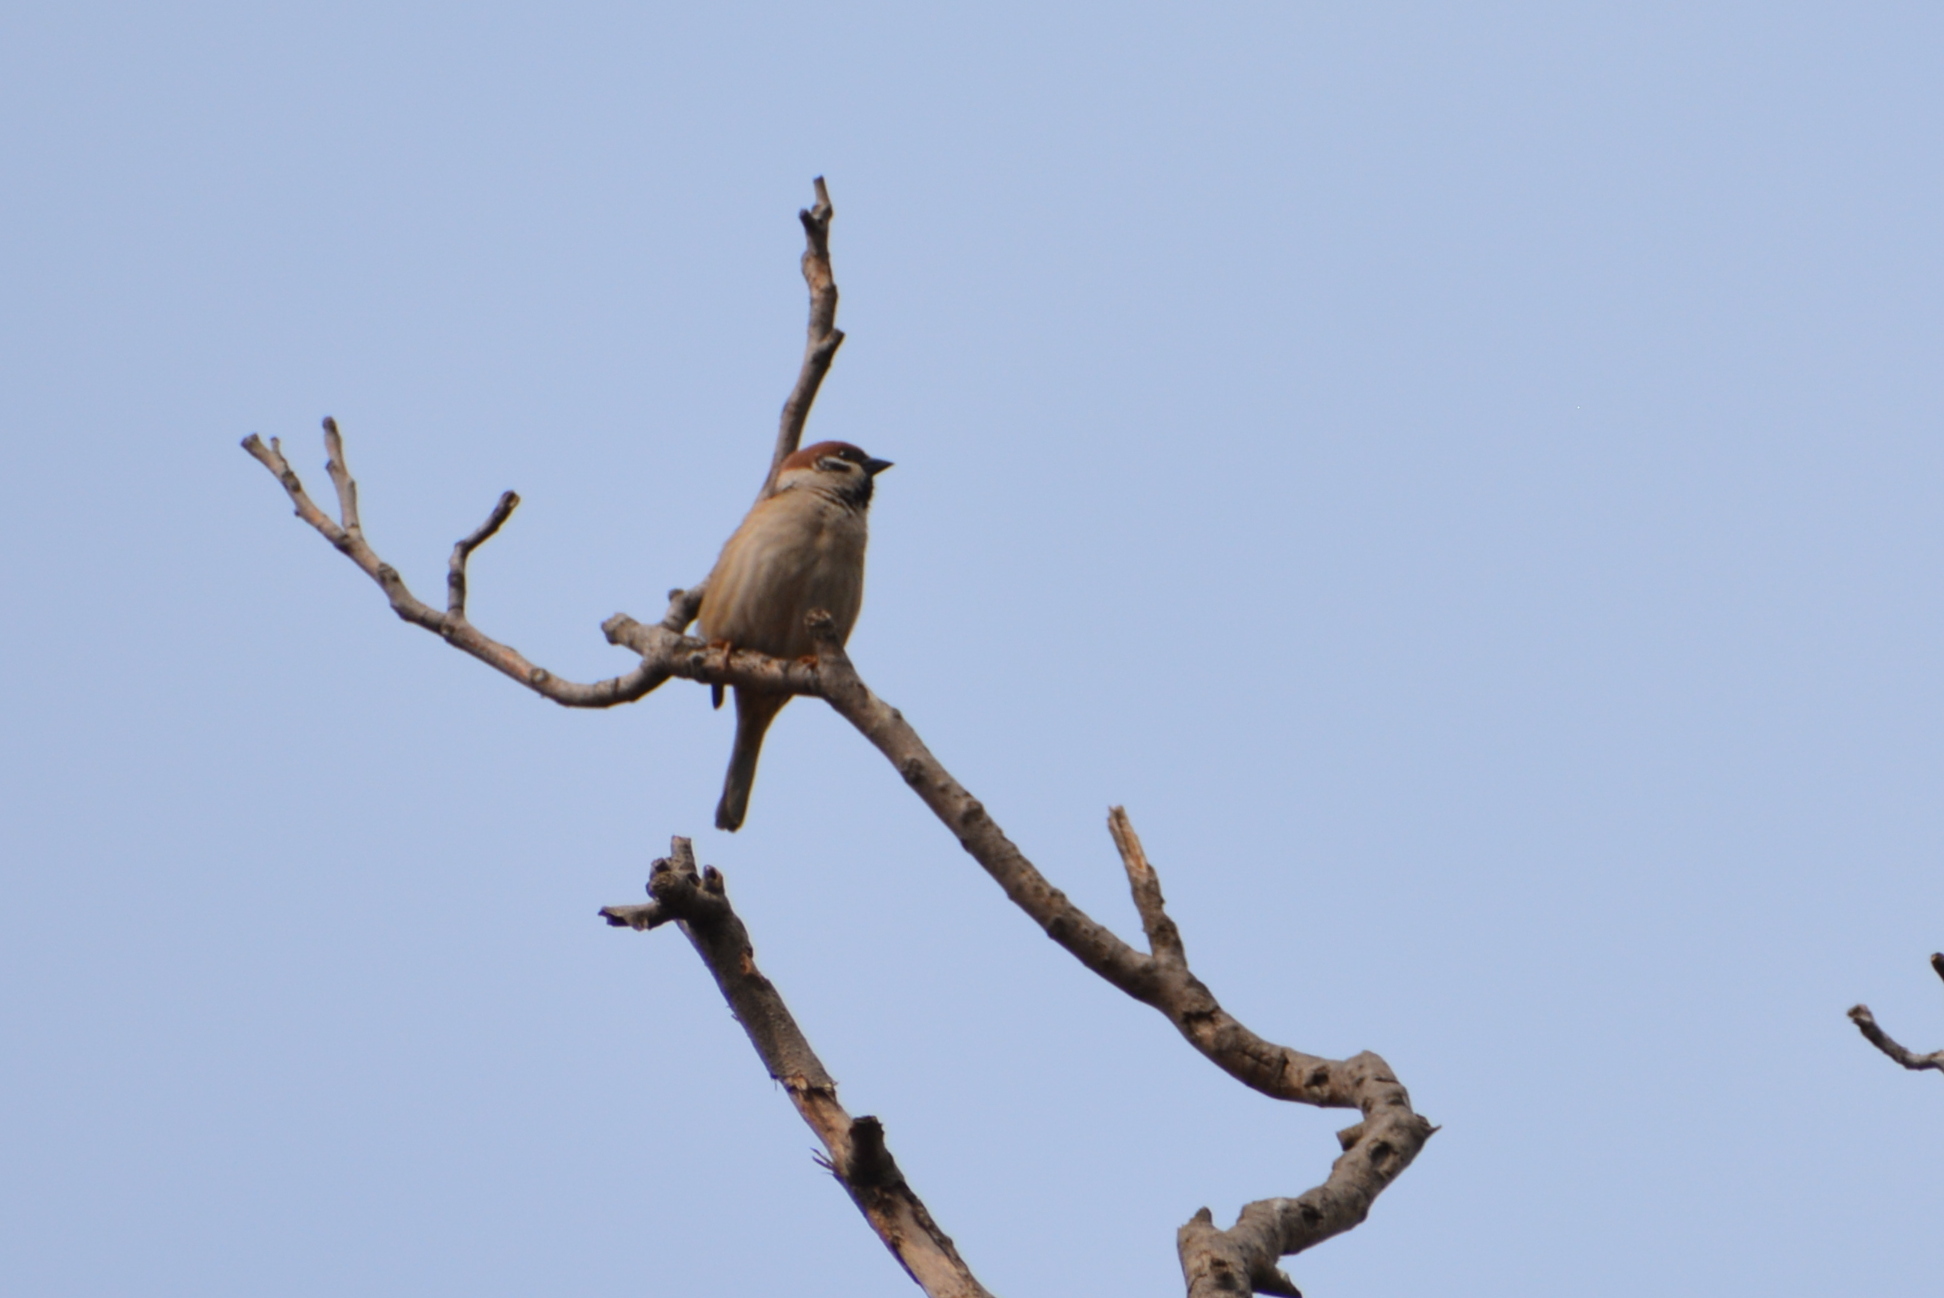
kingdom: Animalia
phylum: Chordata
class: Aves
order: Passeriformes
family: Passeridae
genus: Passer
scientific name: Passer montanus
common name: Eurasian tree sparrow
